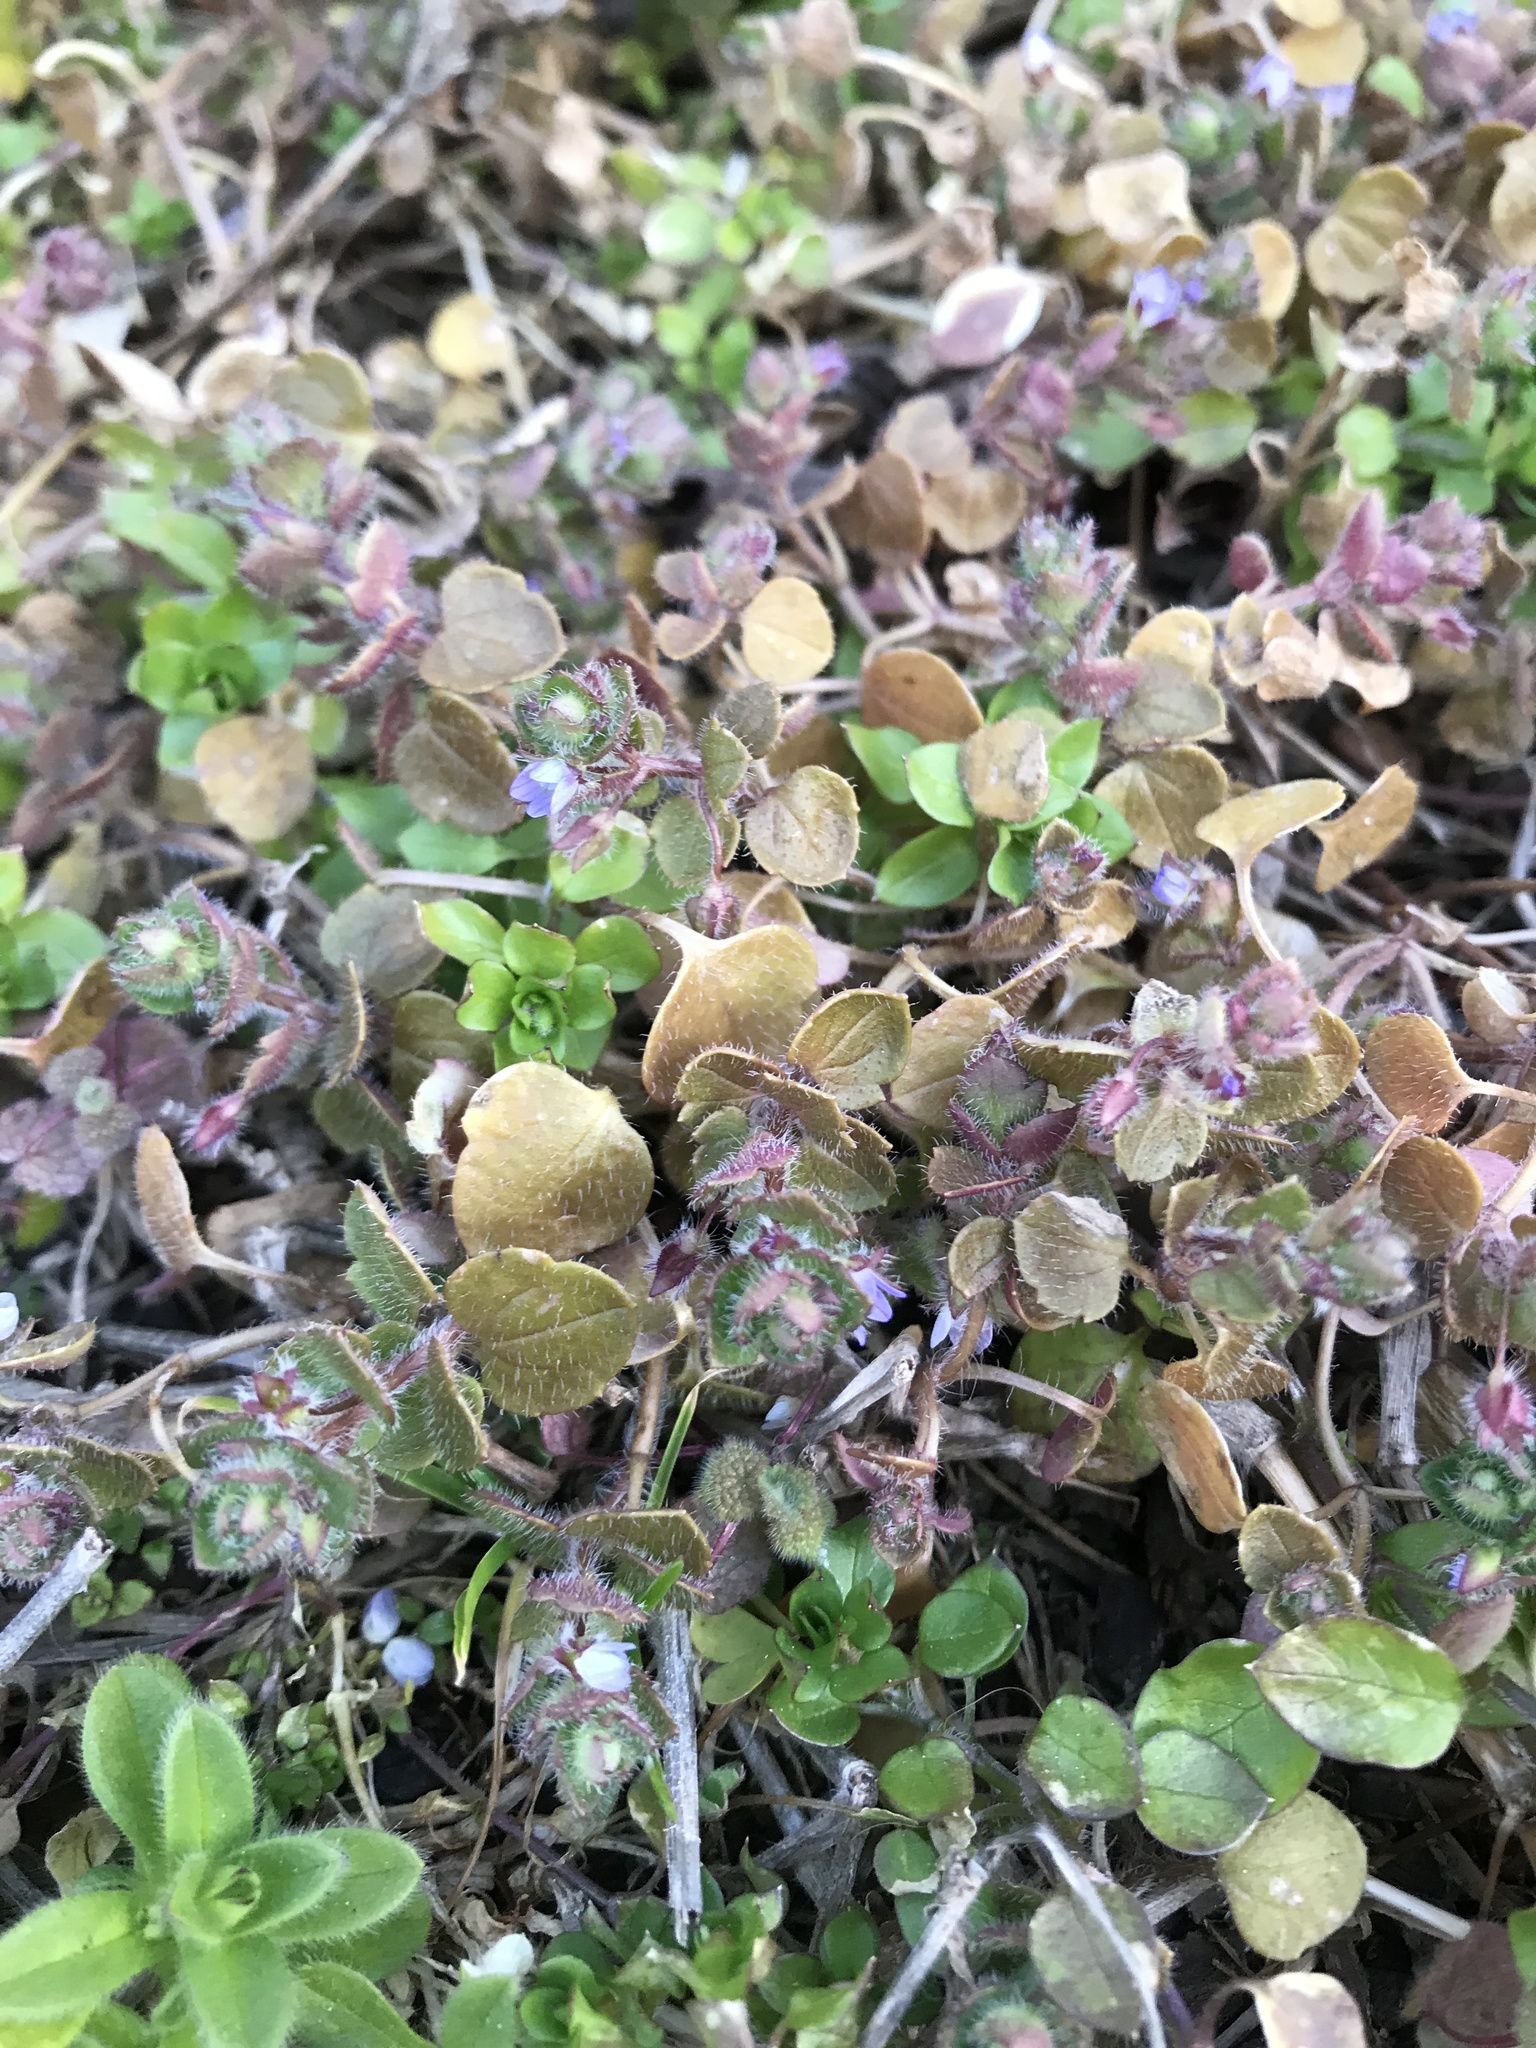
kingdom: Plantae
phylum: Tracheophyta
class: Magnoliopsida
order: Lamiales
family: Plantaginaceae
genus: Veronica
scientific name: Veronica hederifolia
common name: Ivy-leaved speedwell
